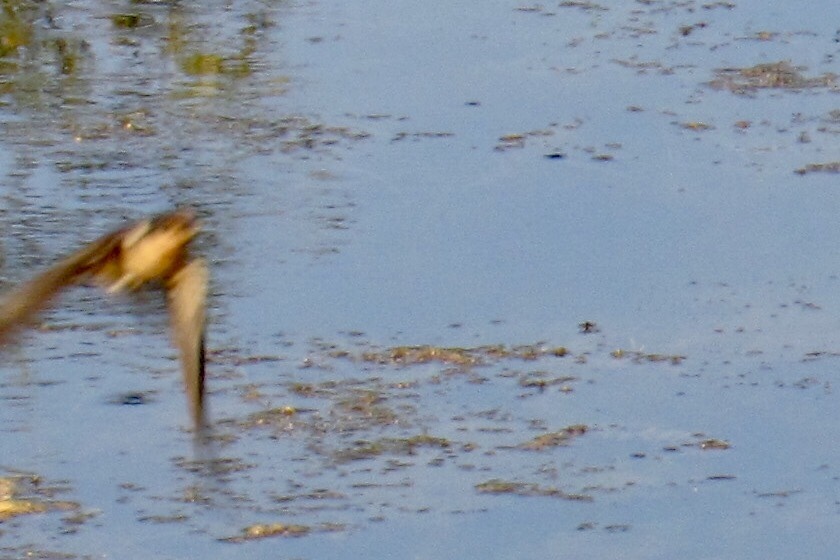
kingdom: Animalia
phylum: Chordata
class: Aves
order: Passeriformes
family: Hirundinidae
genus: Hirundo
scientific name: Hirundo rustica
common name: Barn swallow
